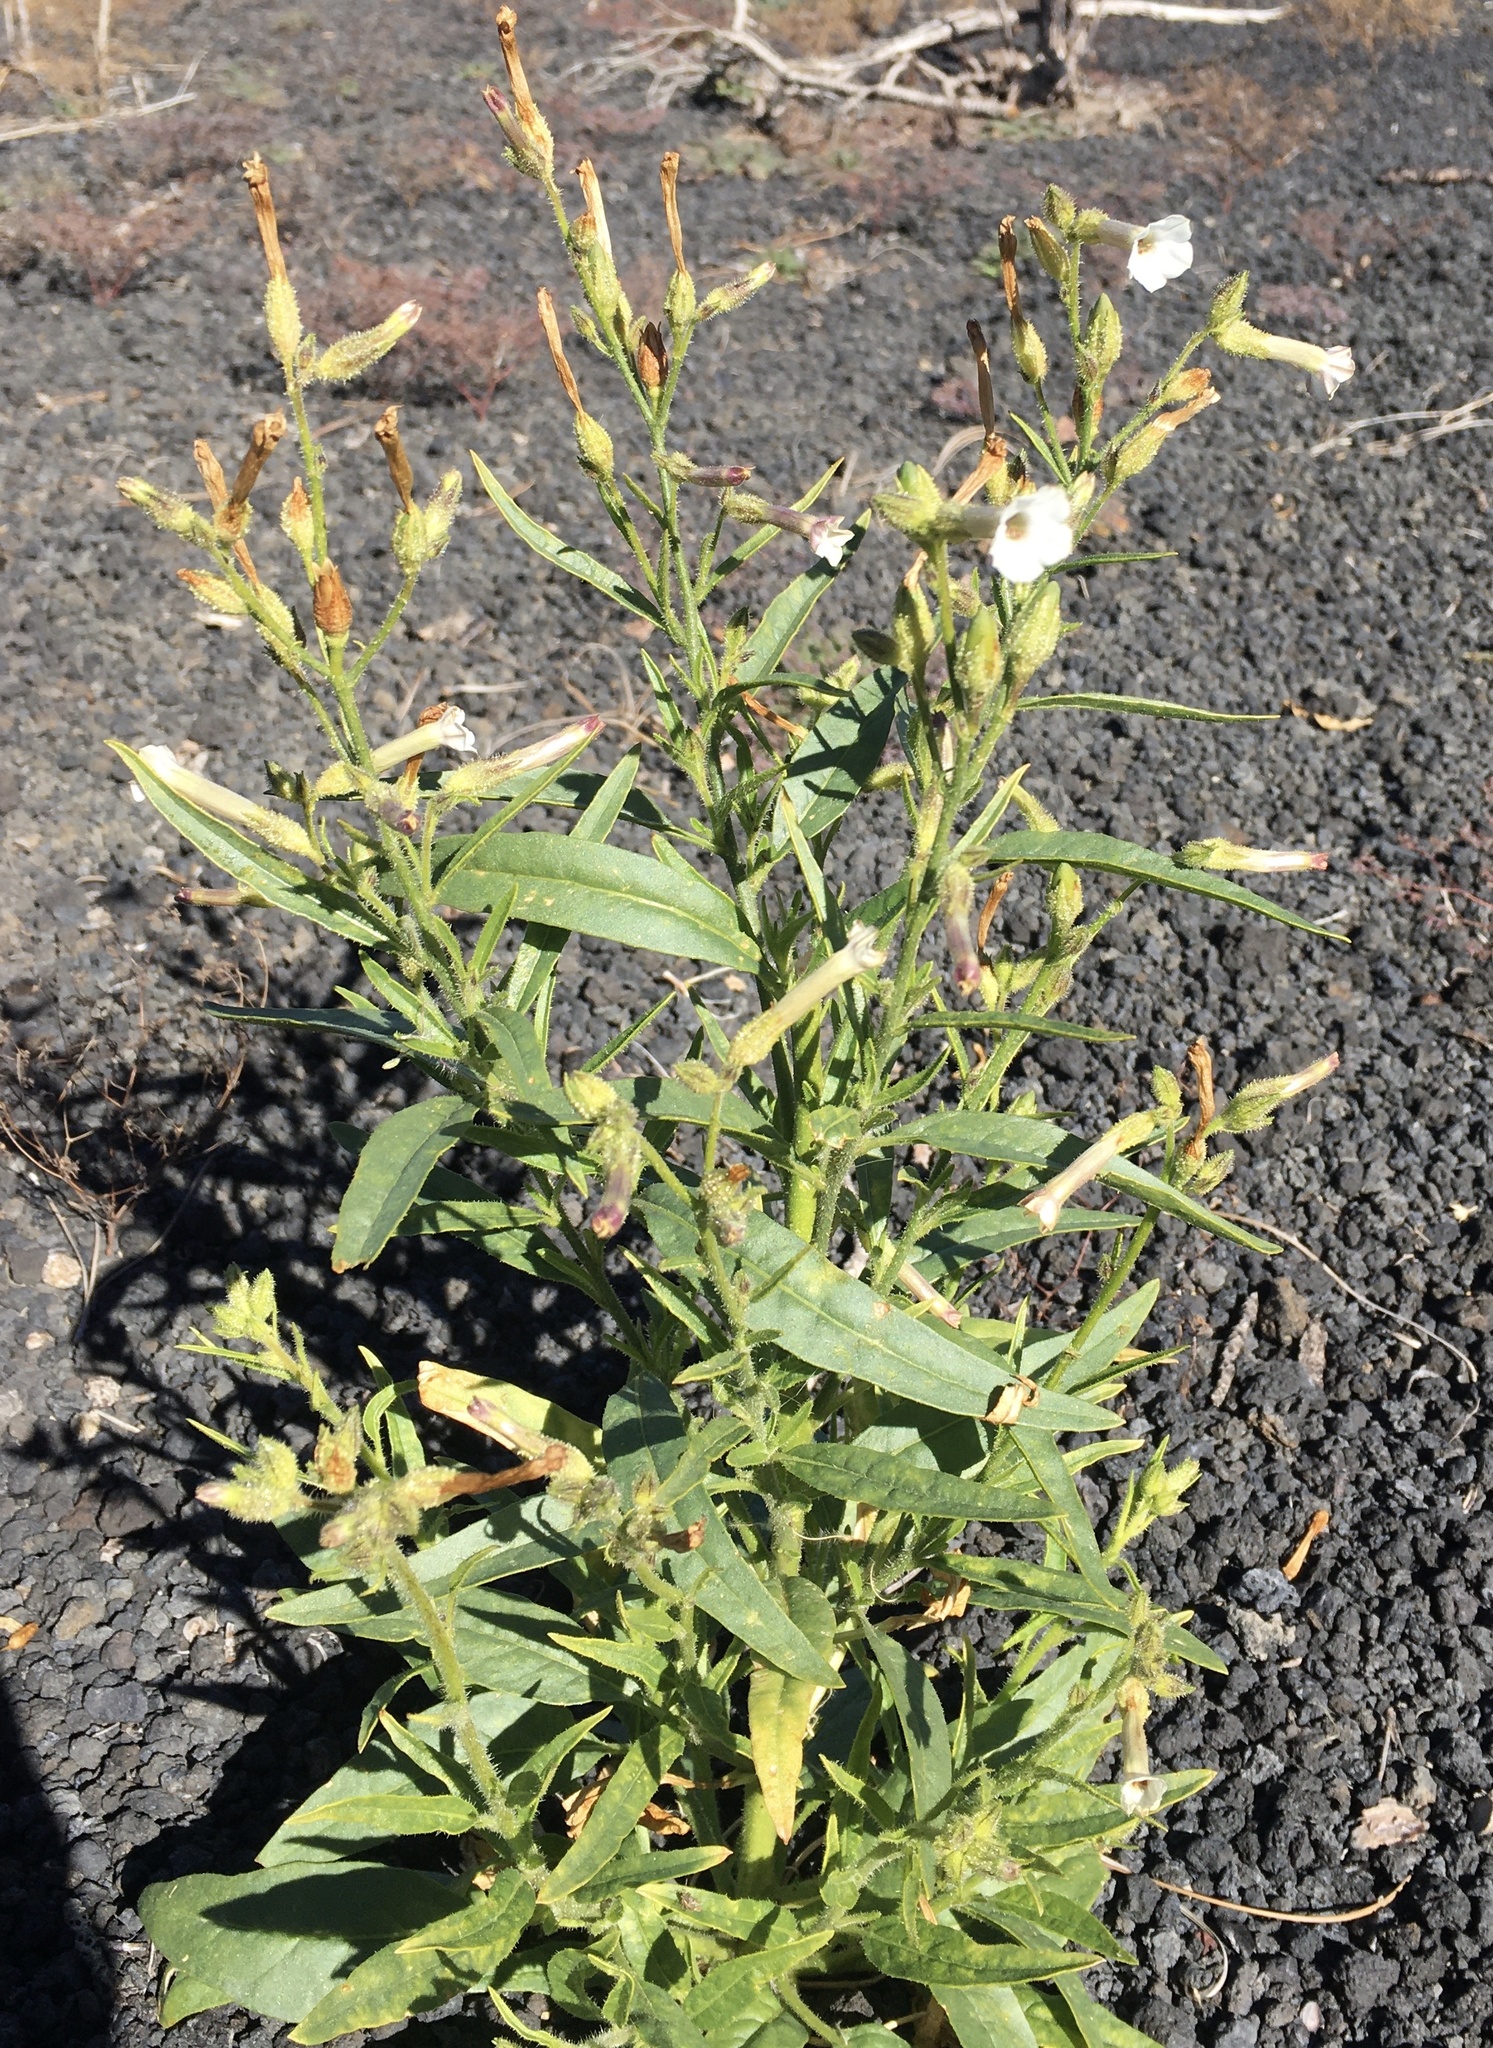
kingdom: Plantae
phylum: Tracheophyta
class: Magnoliopsida
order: Solanales
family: Solanaceae
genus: Nicotiana
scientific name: Nicotiana attenuata
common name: Coyote tobacco
